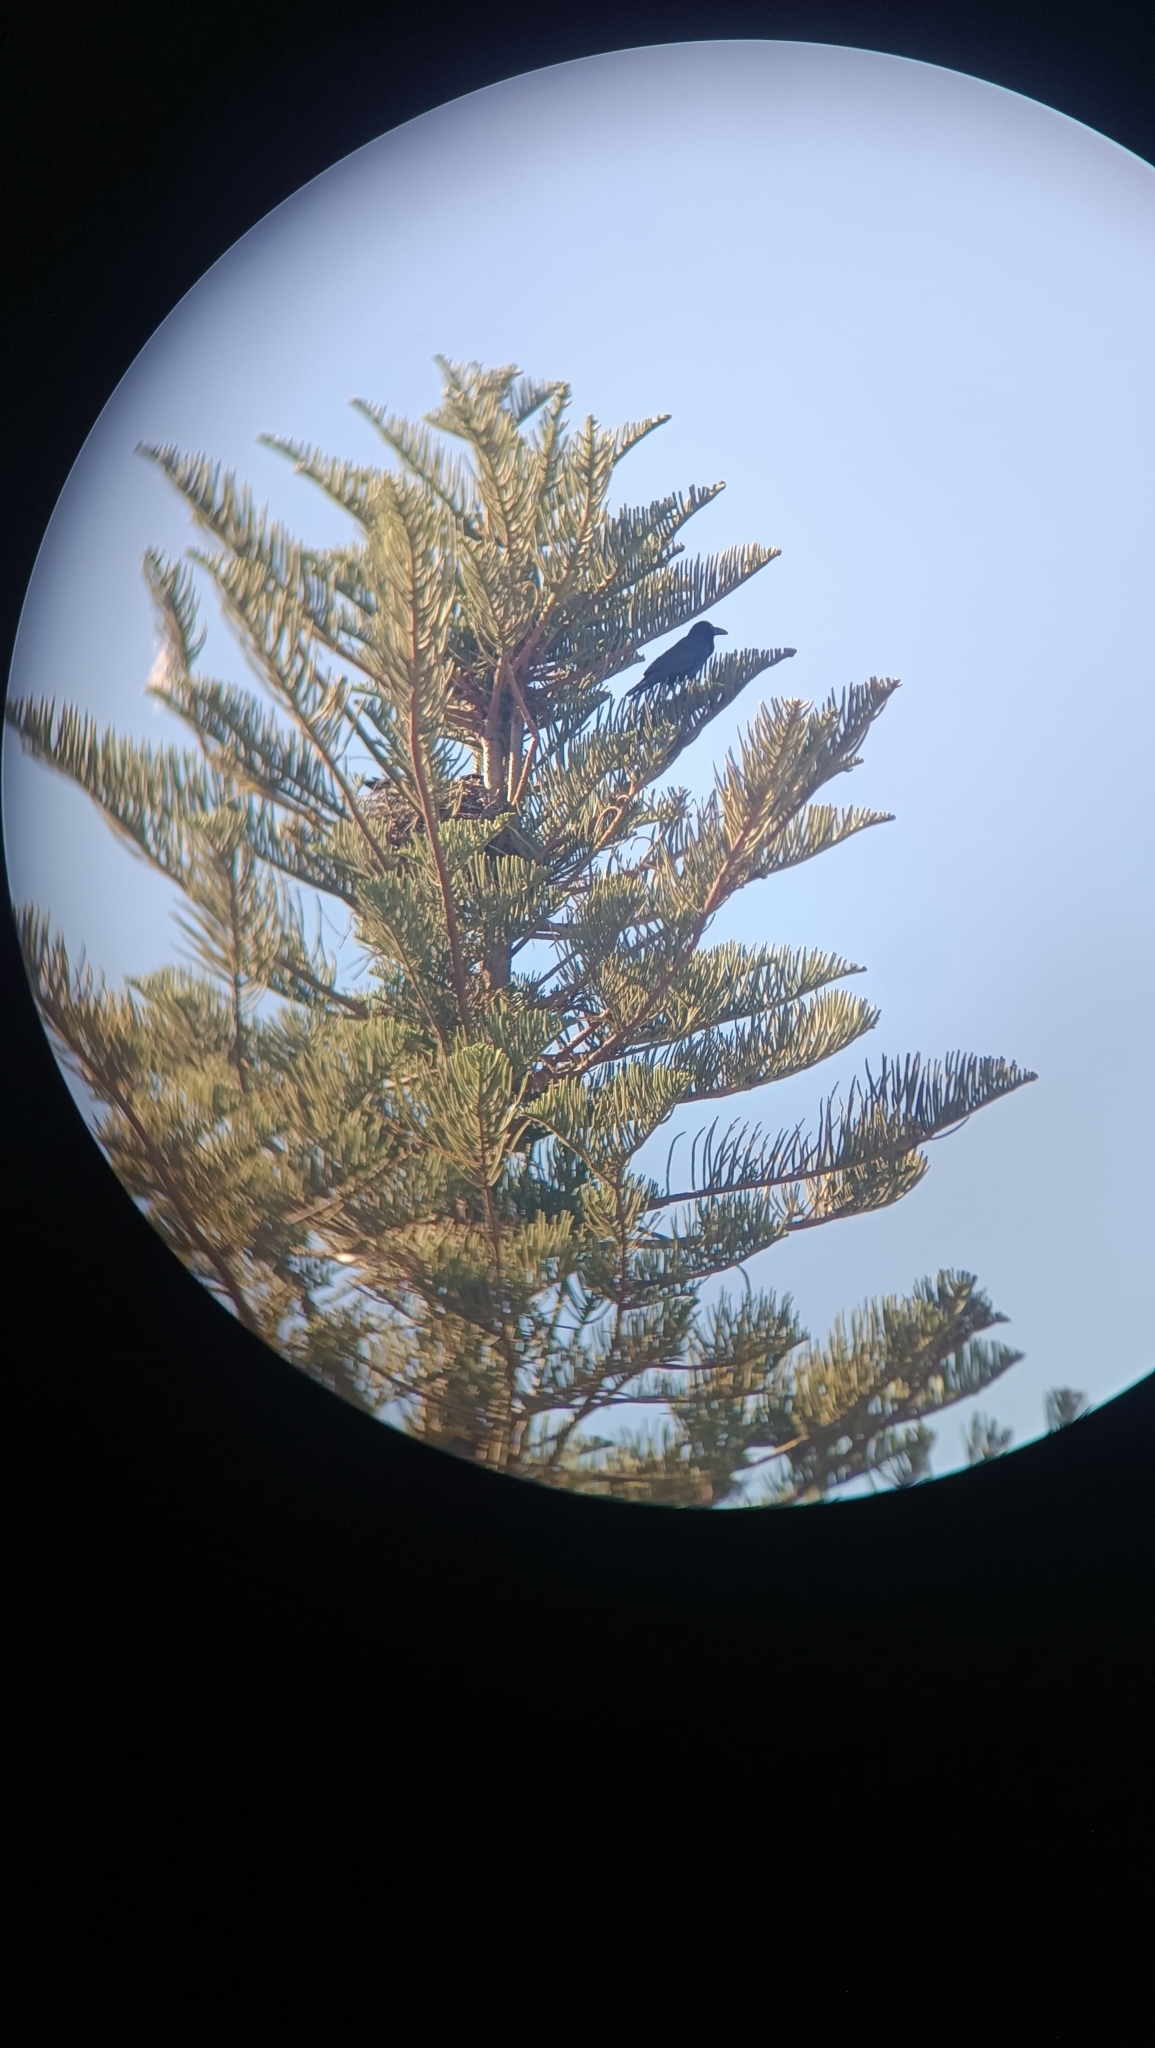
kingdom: Animalia
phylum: Chordata
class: Aves
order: Passeriformes
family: Corvidae
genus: Corvus
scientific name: Corvus corax
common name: Common raven
